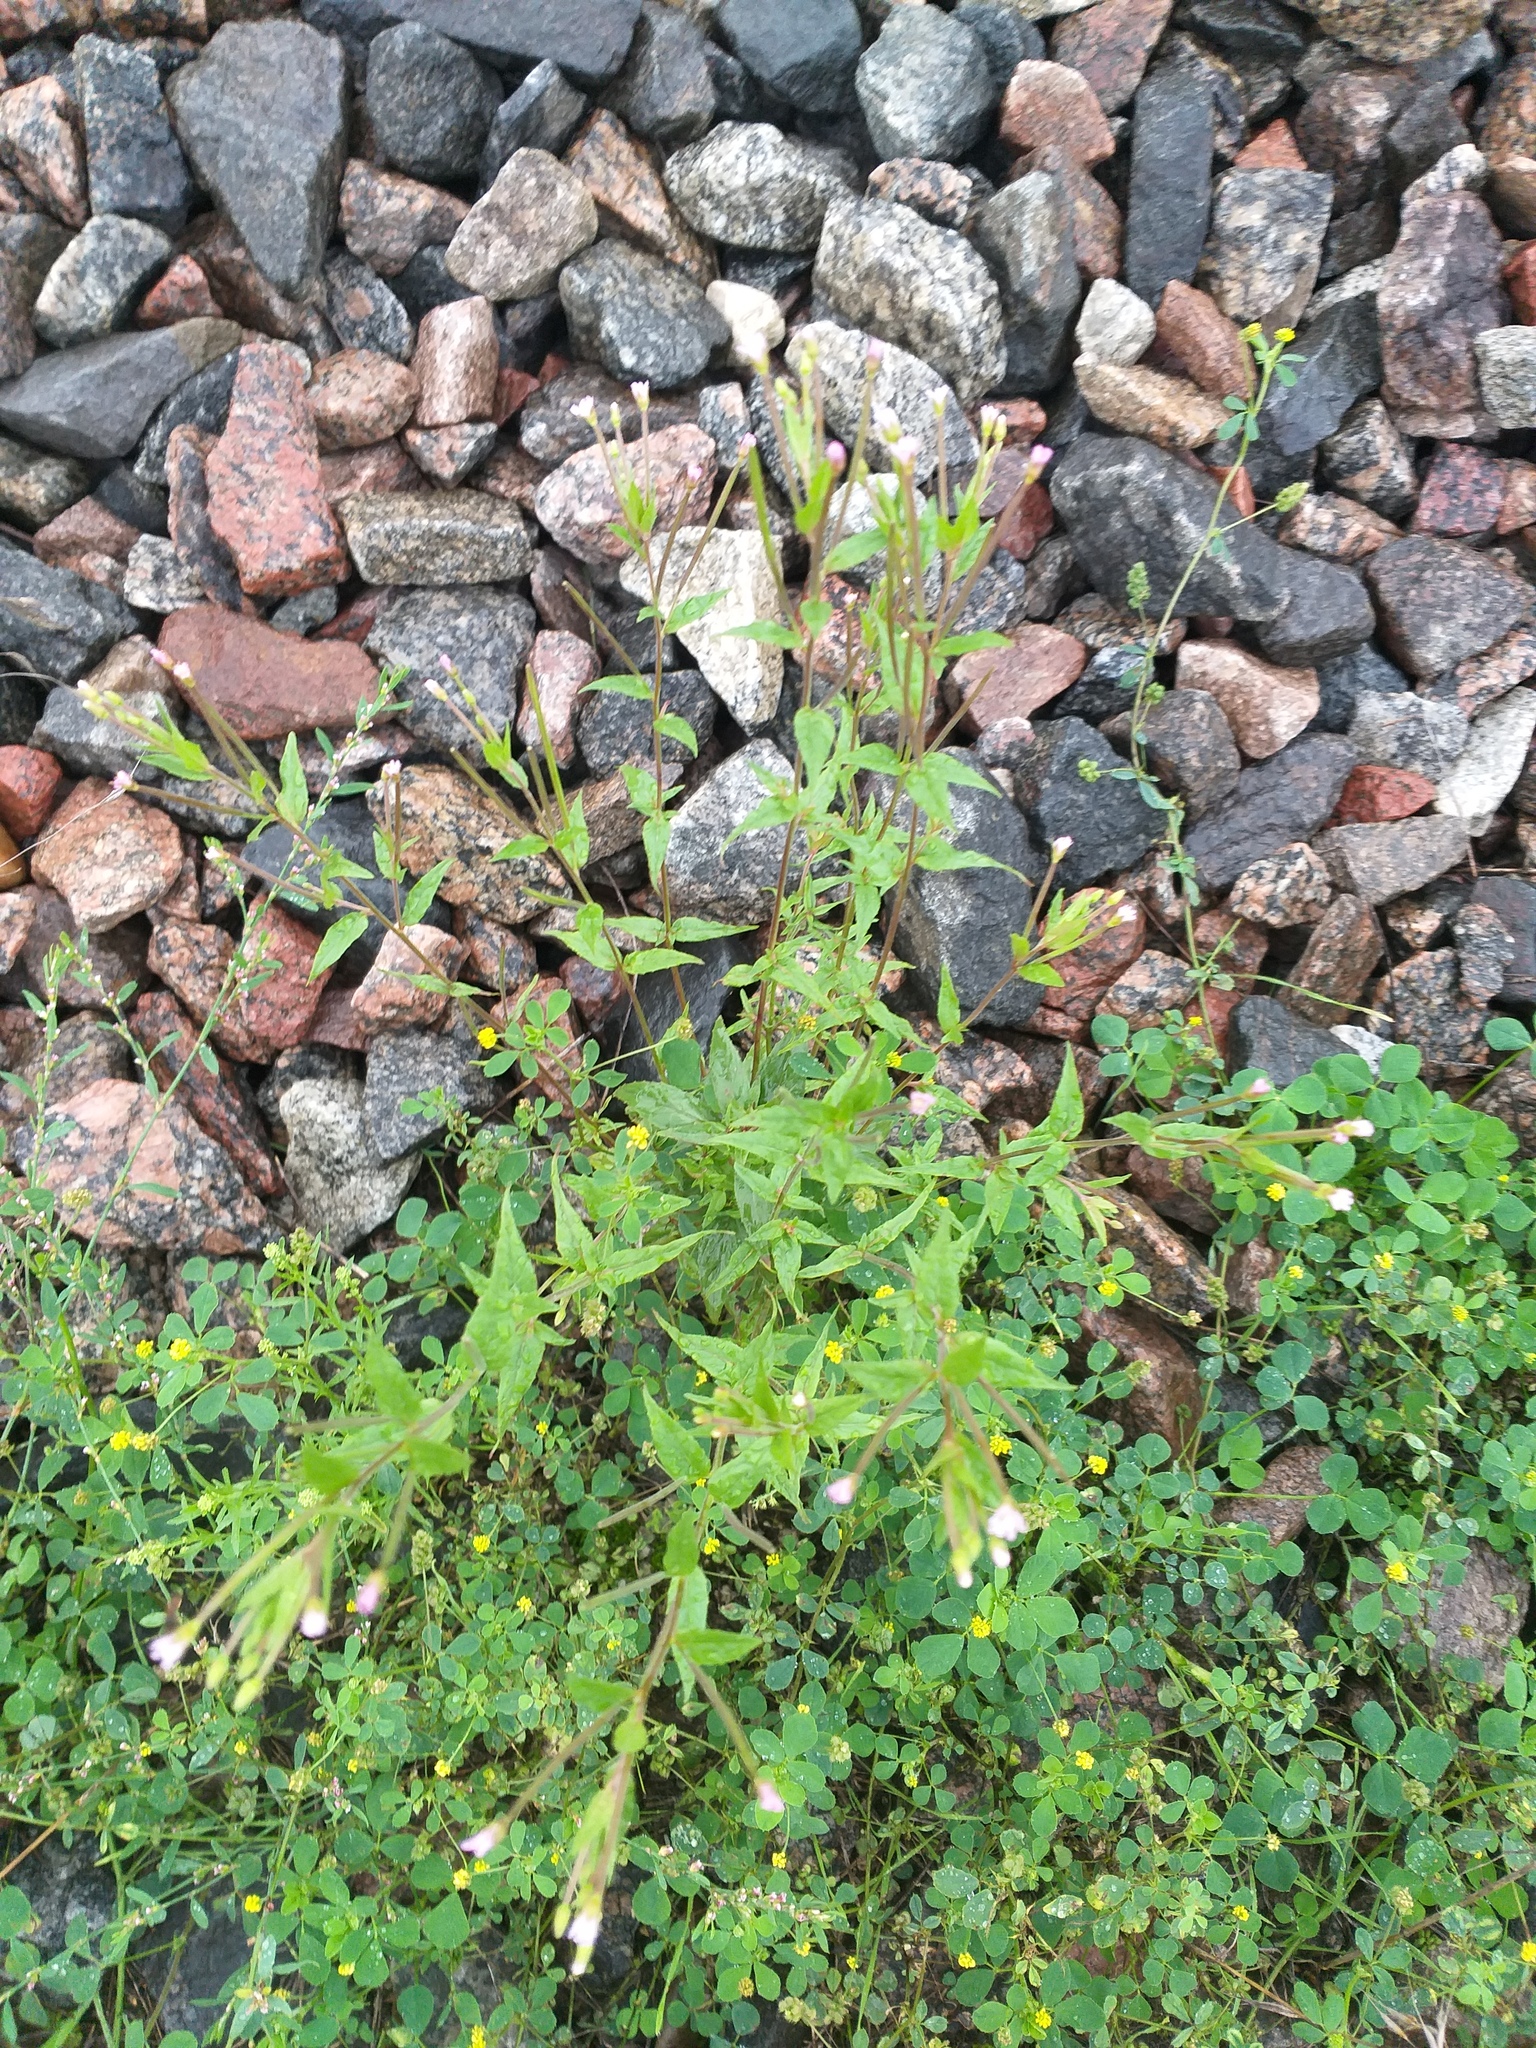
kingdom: Plantae
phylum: Tracheophyta
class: Magnoliopsida
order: Myrtales
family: Onagraceae
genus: Epilobium
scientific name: Epilobium pseudorubescens
